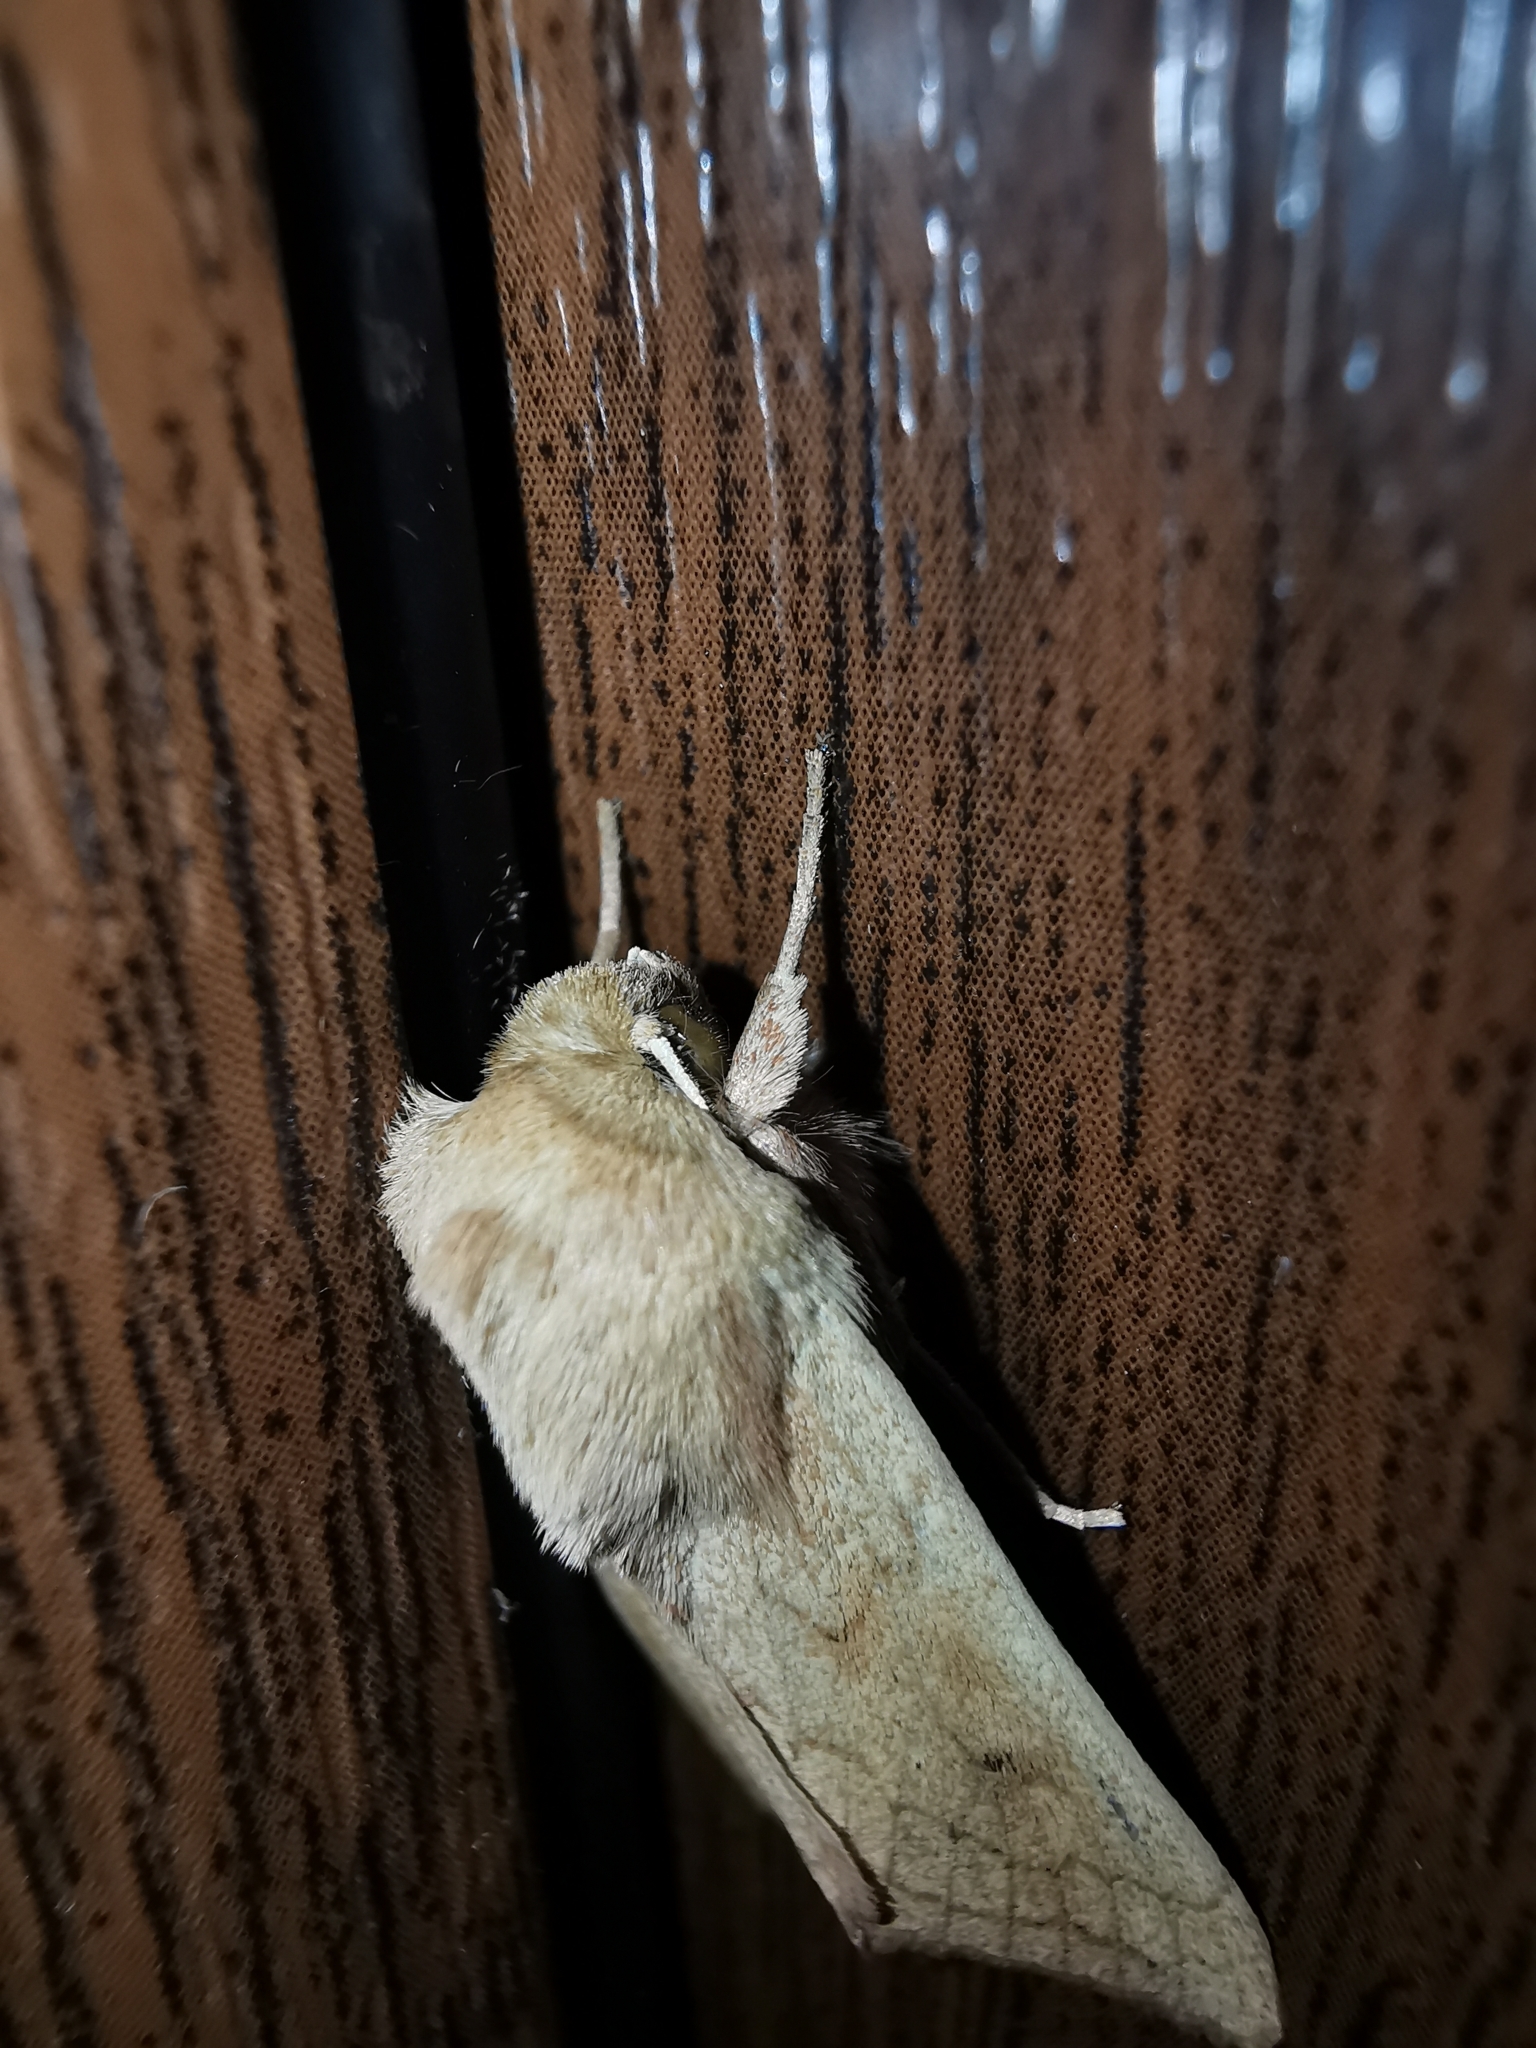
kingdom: Animalia
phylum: Arthropoda
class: Insecta
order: Lepidoptera
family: Noctuidae
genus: Mythimna
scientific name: Mythimna vitellina
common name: Delicate
